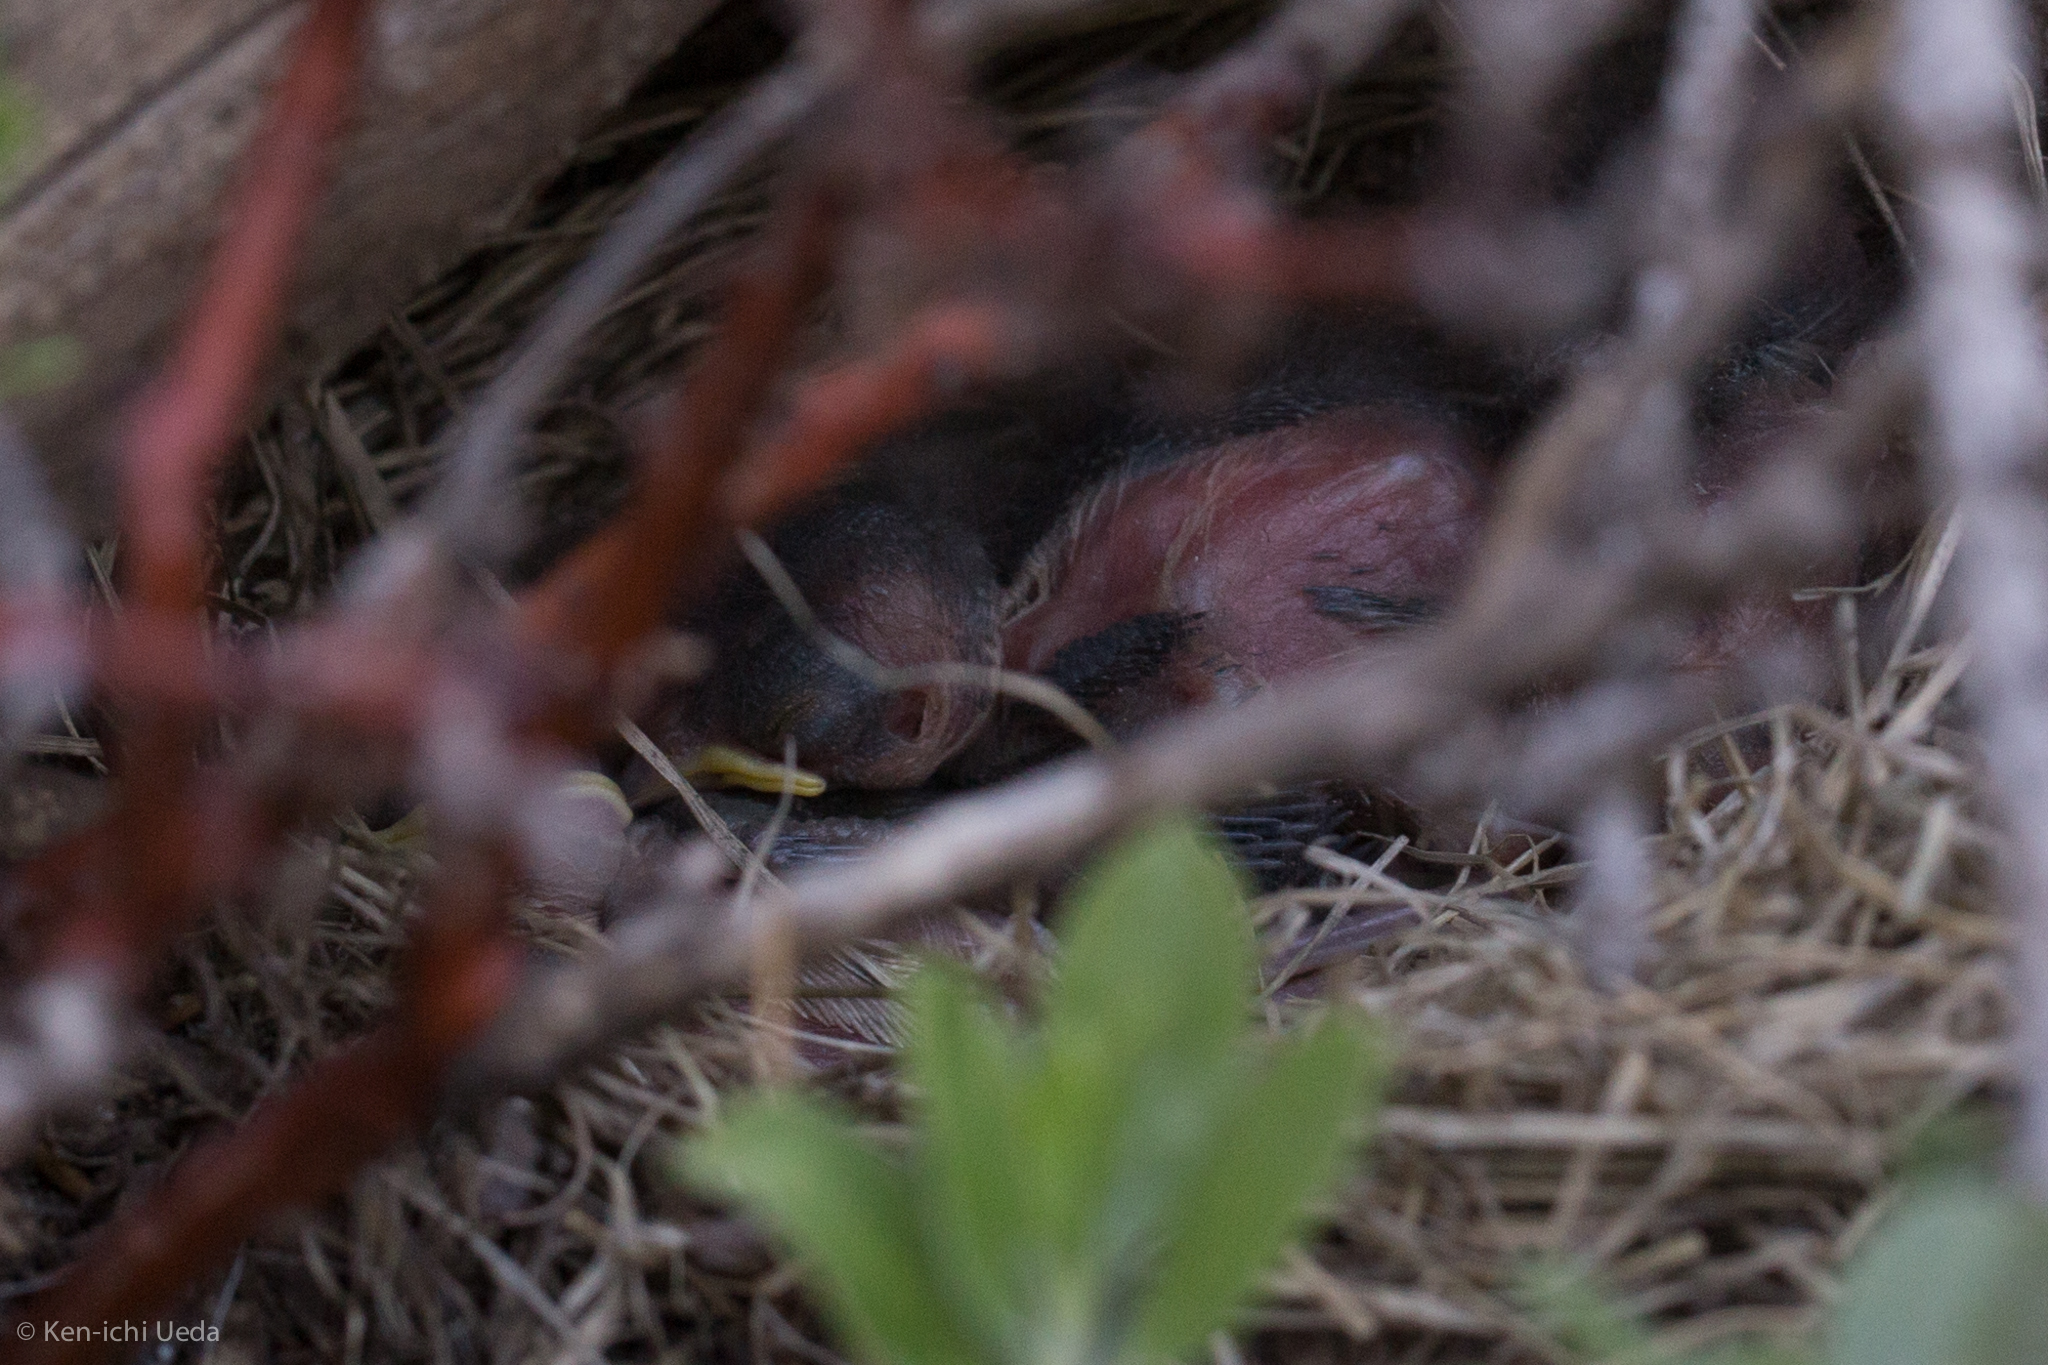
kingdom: Animalia
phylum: Chordata
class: Aves
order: Passeriformes
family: Passerellidae
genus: Junco
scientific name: Junco hyemalis
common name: Dark-eyed junco
